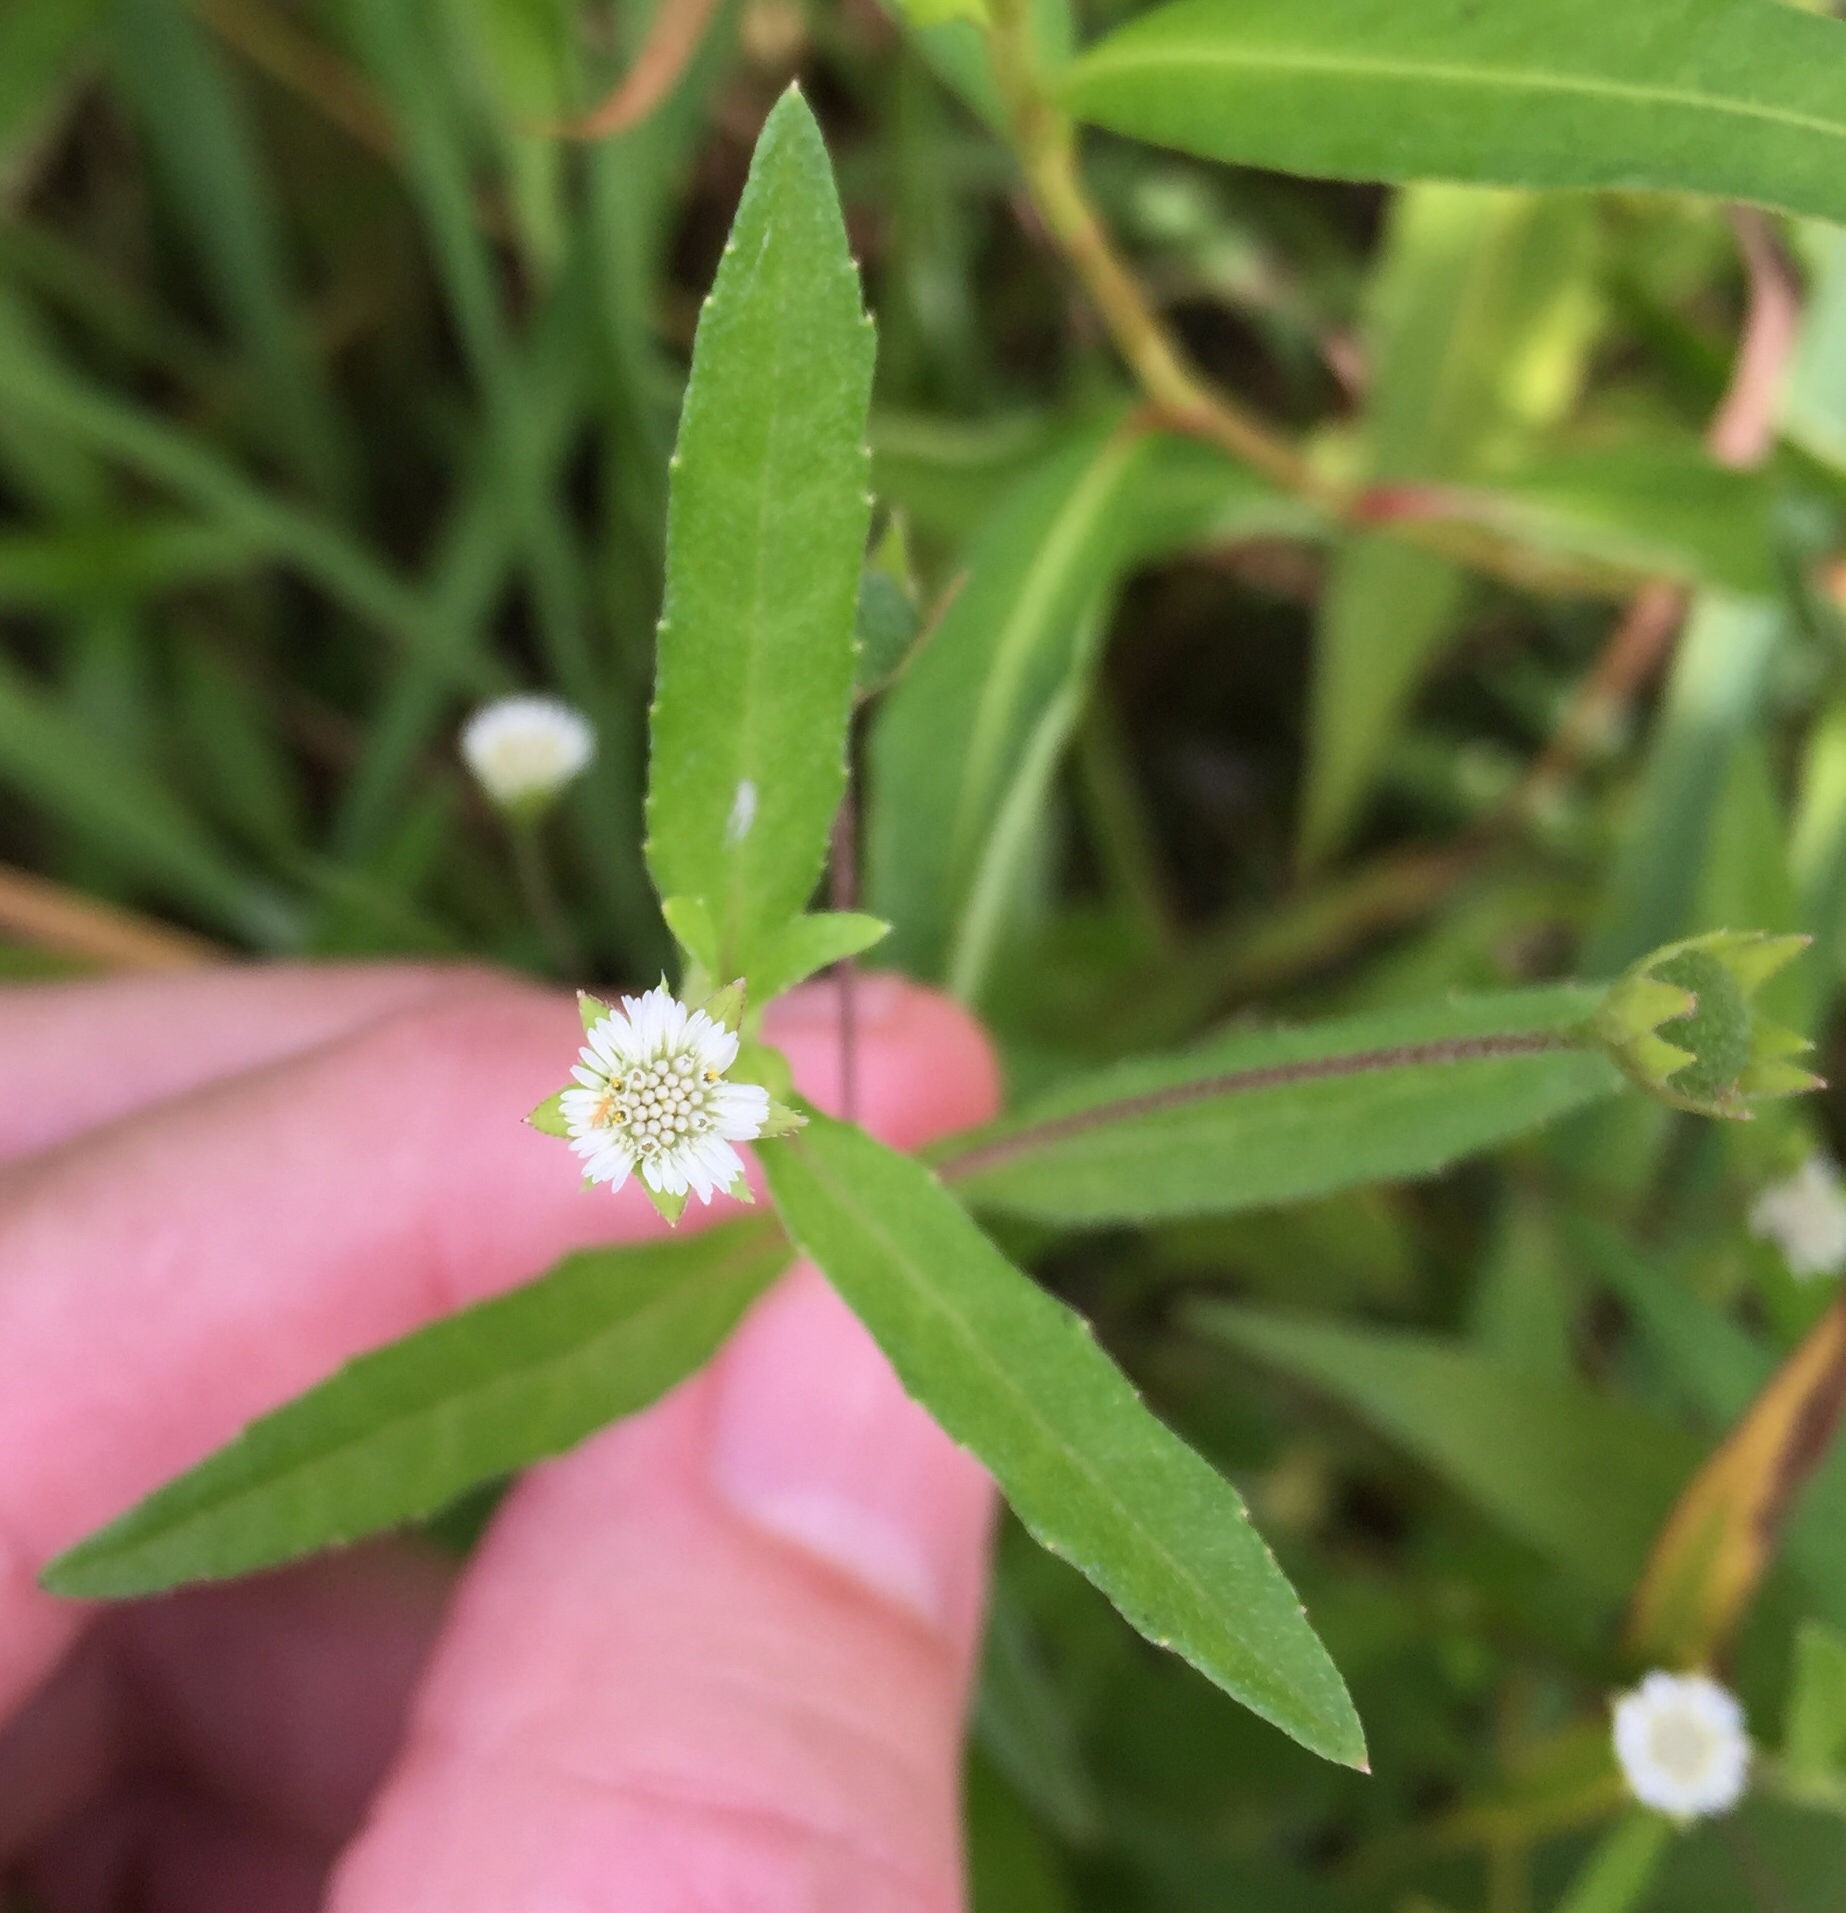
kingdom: Plantae
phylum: Tracheophyta
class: Magnoliopsida
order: Asterales
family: Asteraceae
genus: Eclipta
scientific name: Eclipta prostrata
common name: False daisy
